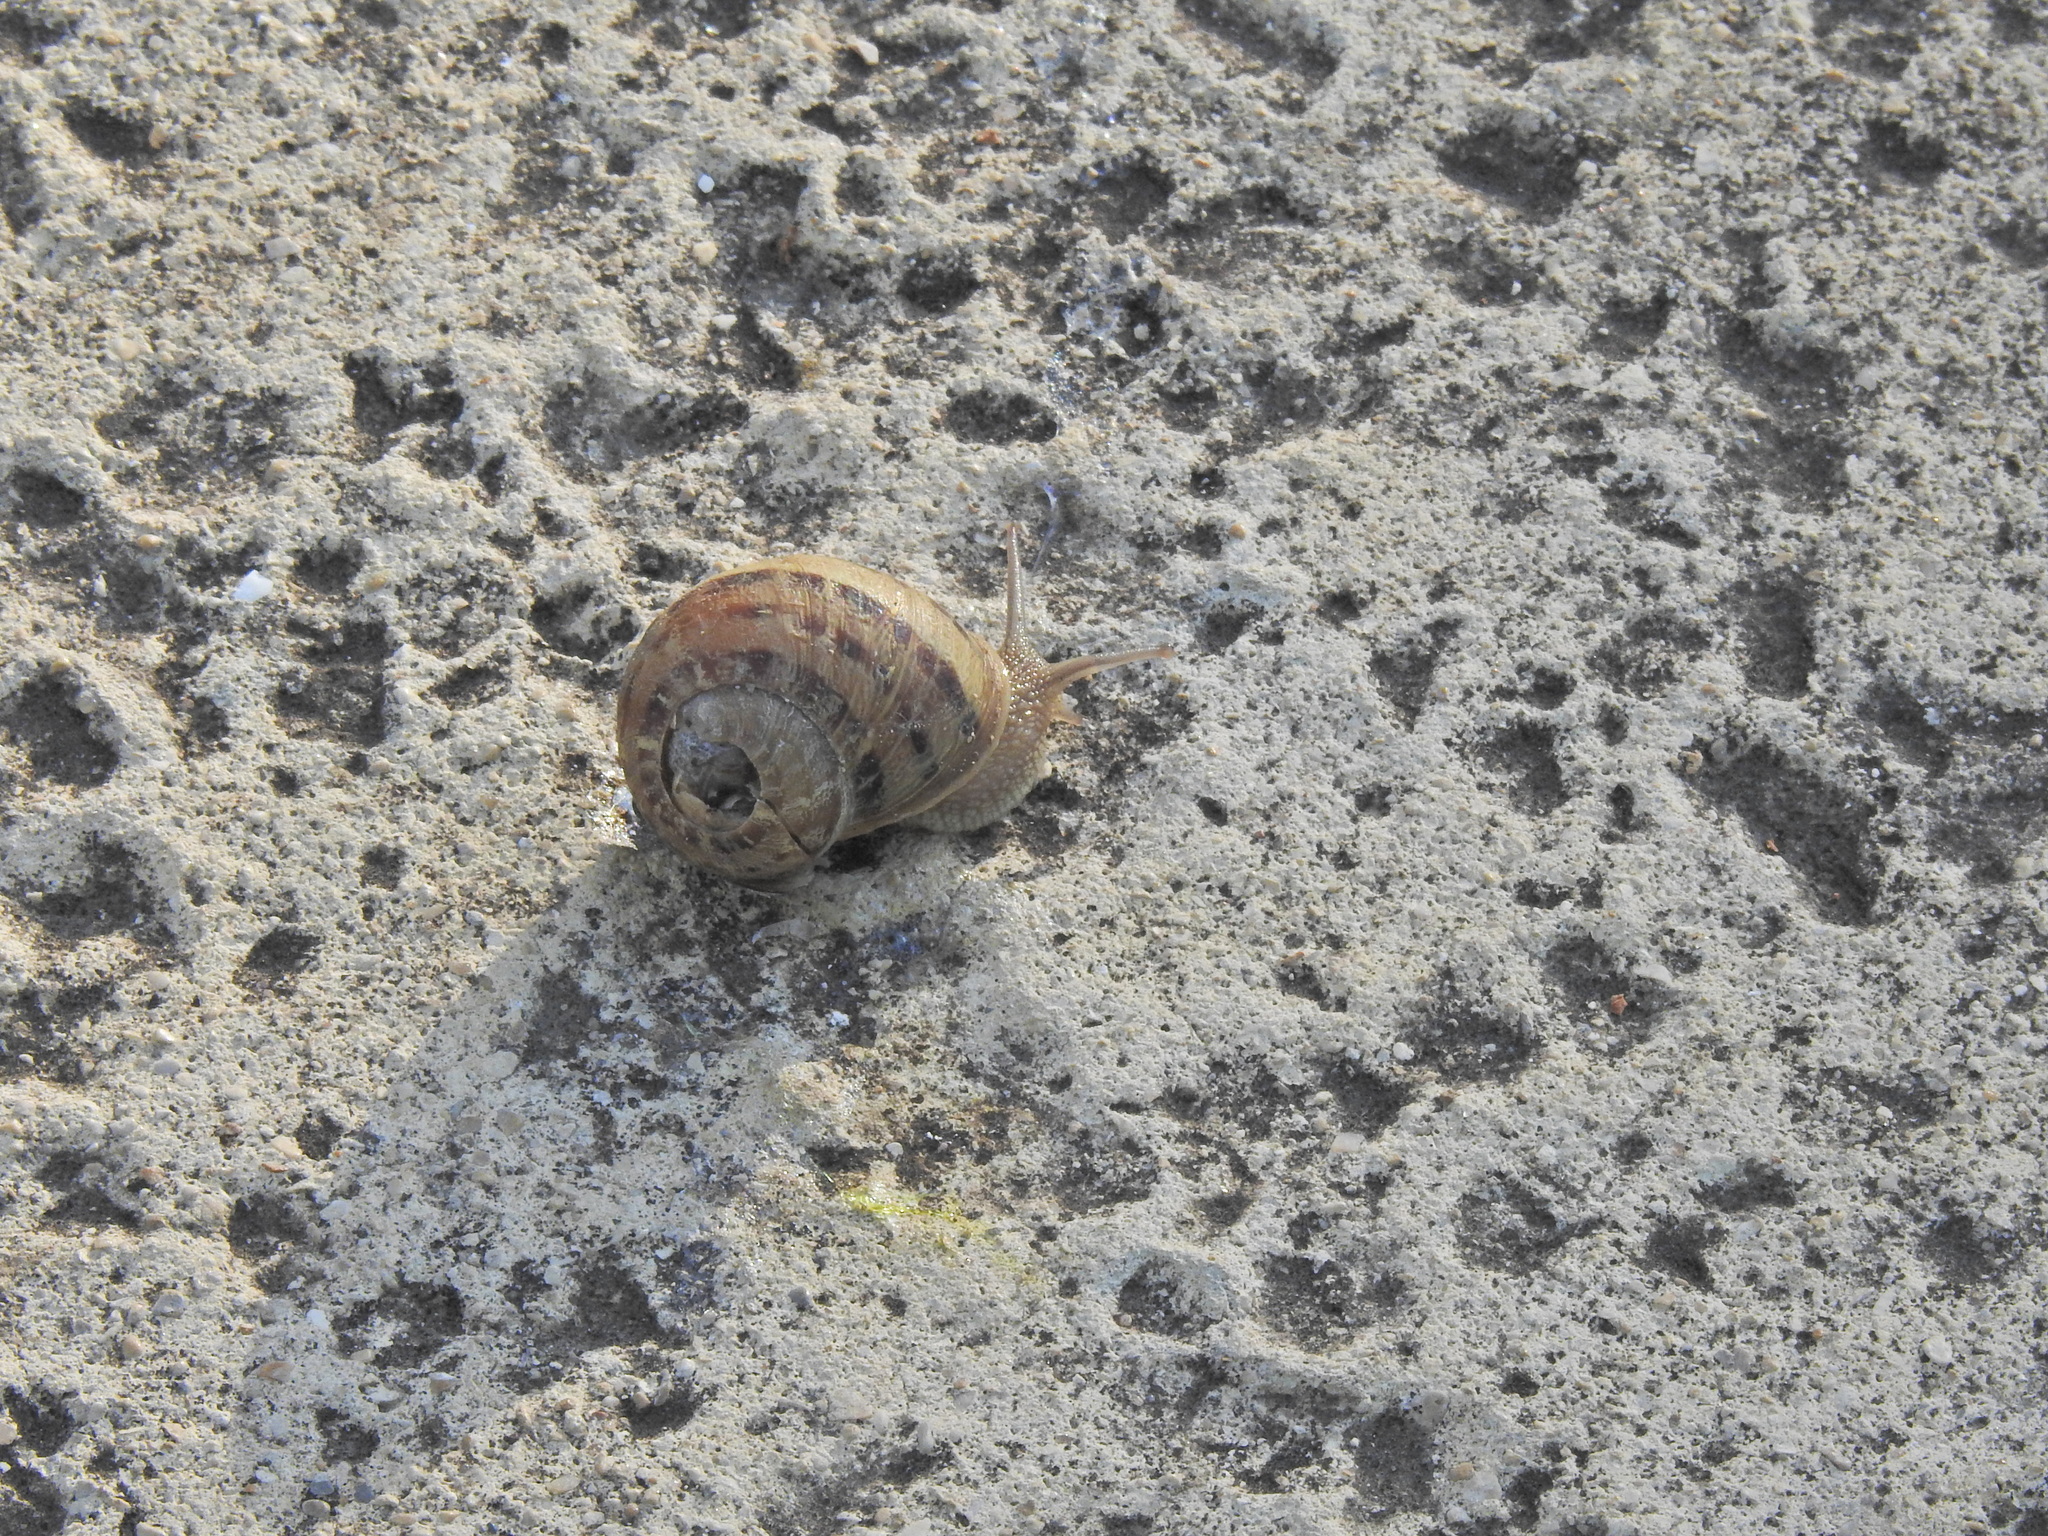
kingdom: Animalia
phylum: Mollusca
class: Gastropoda
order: Stylommatophora
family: Helicidae
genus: Cornu
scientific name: Cornu aspersum
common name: Brown garden snail
